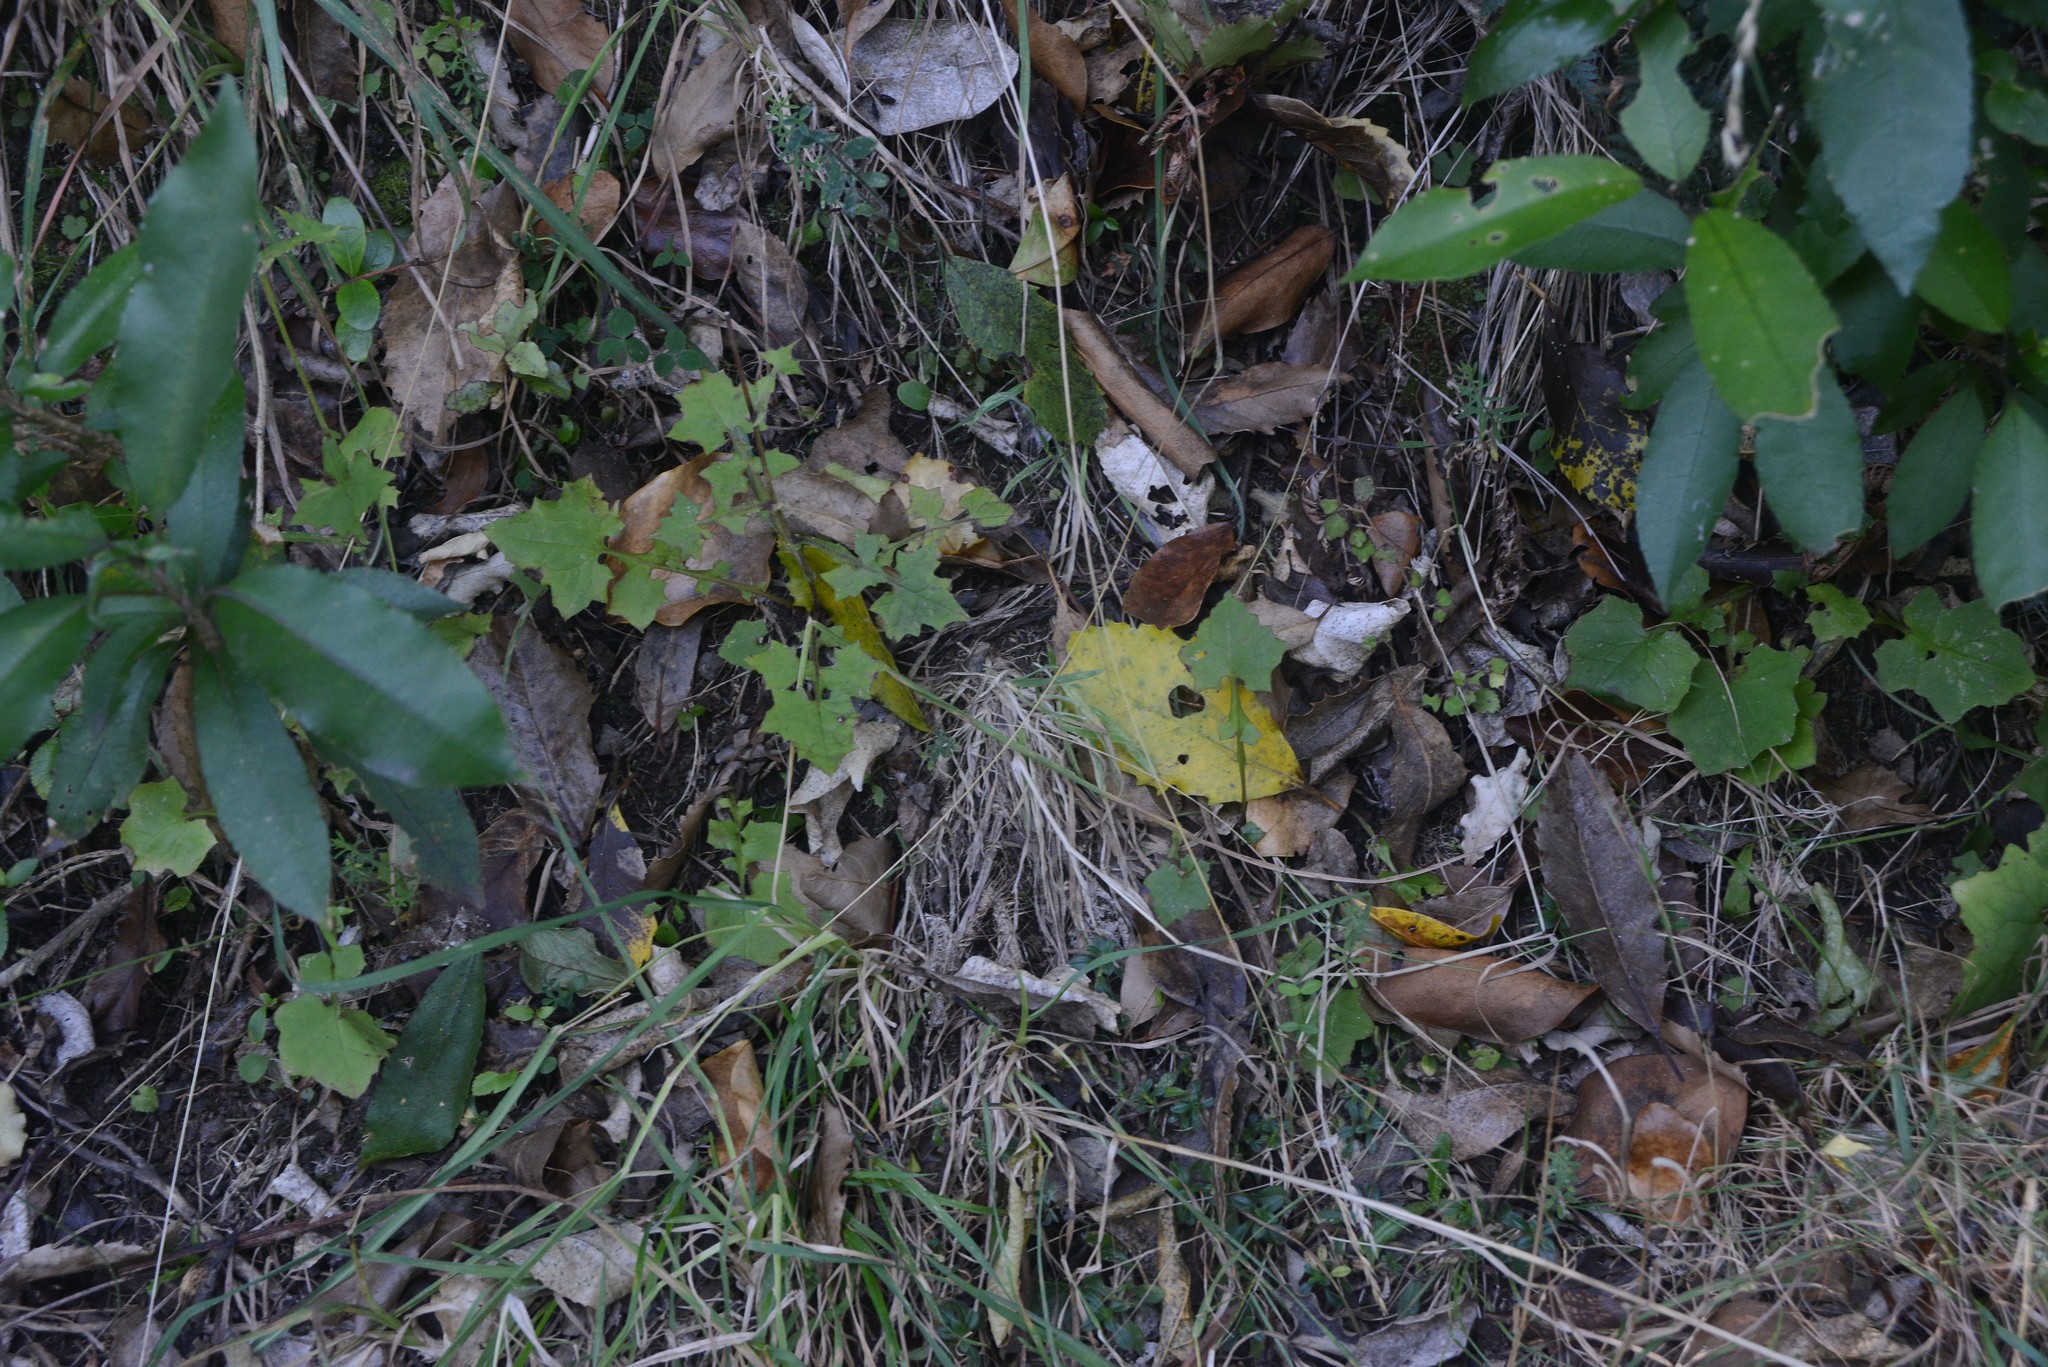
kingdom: Plantae
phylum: Tracheophyta
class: Magnoliopsida
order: Asterales
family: Asteraceae
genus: Mycelis
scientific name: Mycelis muralis
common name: Wall lettuce
